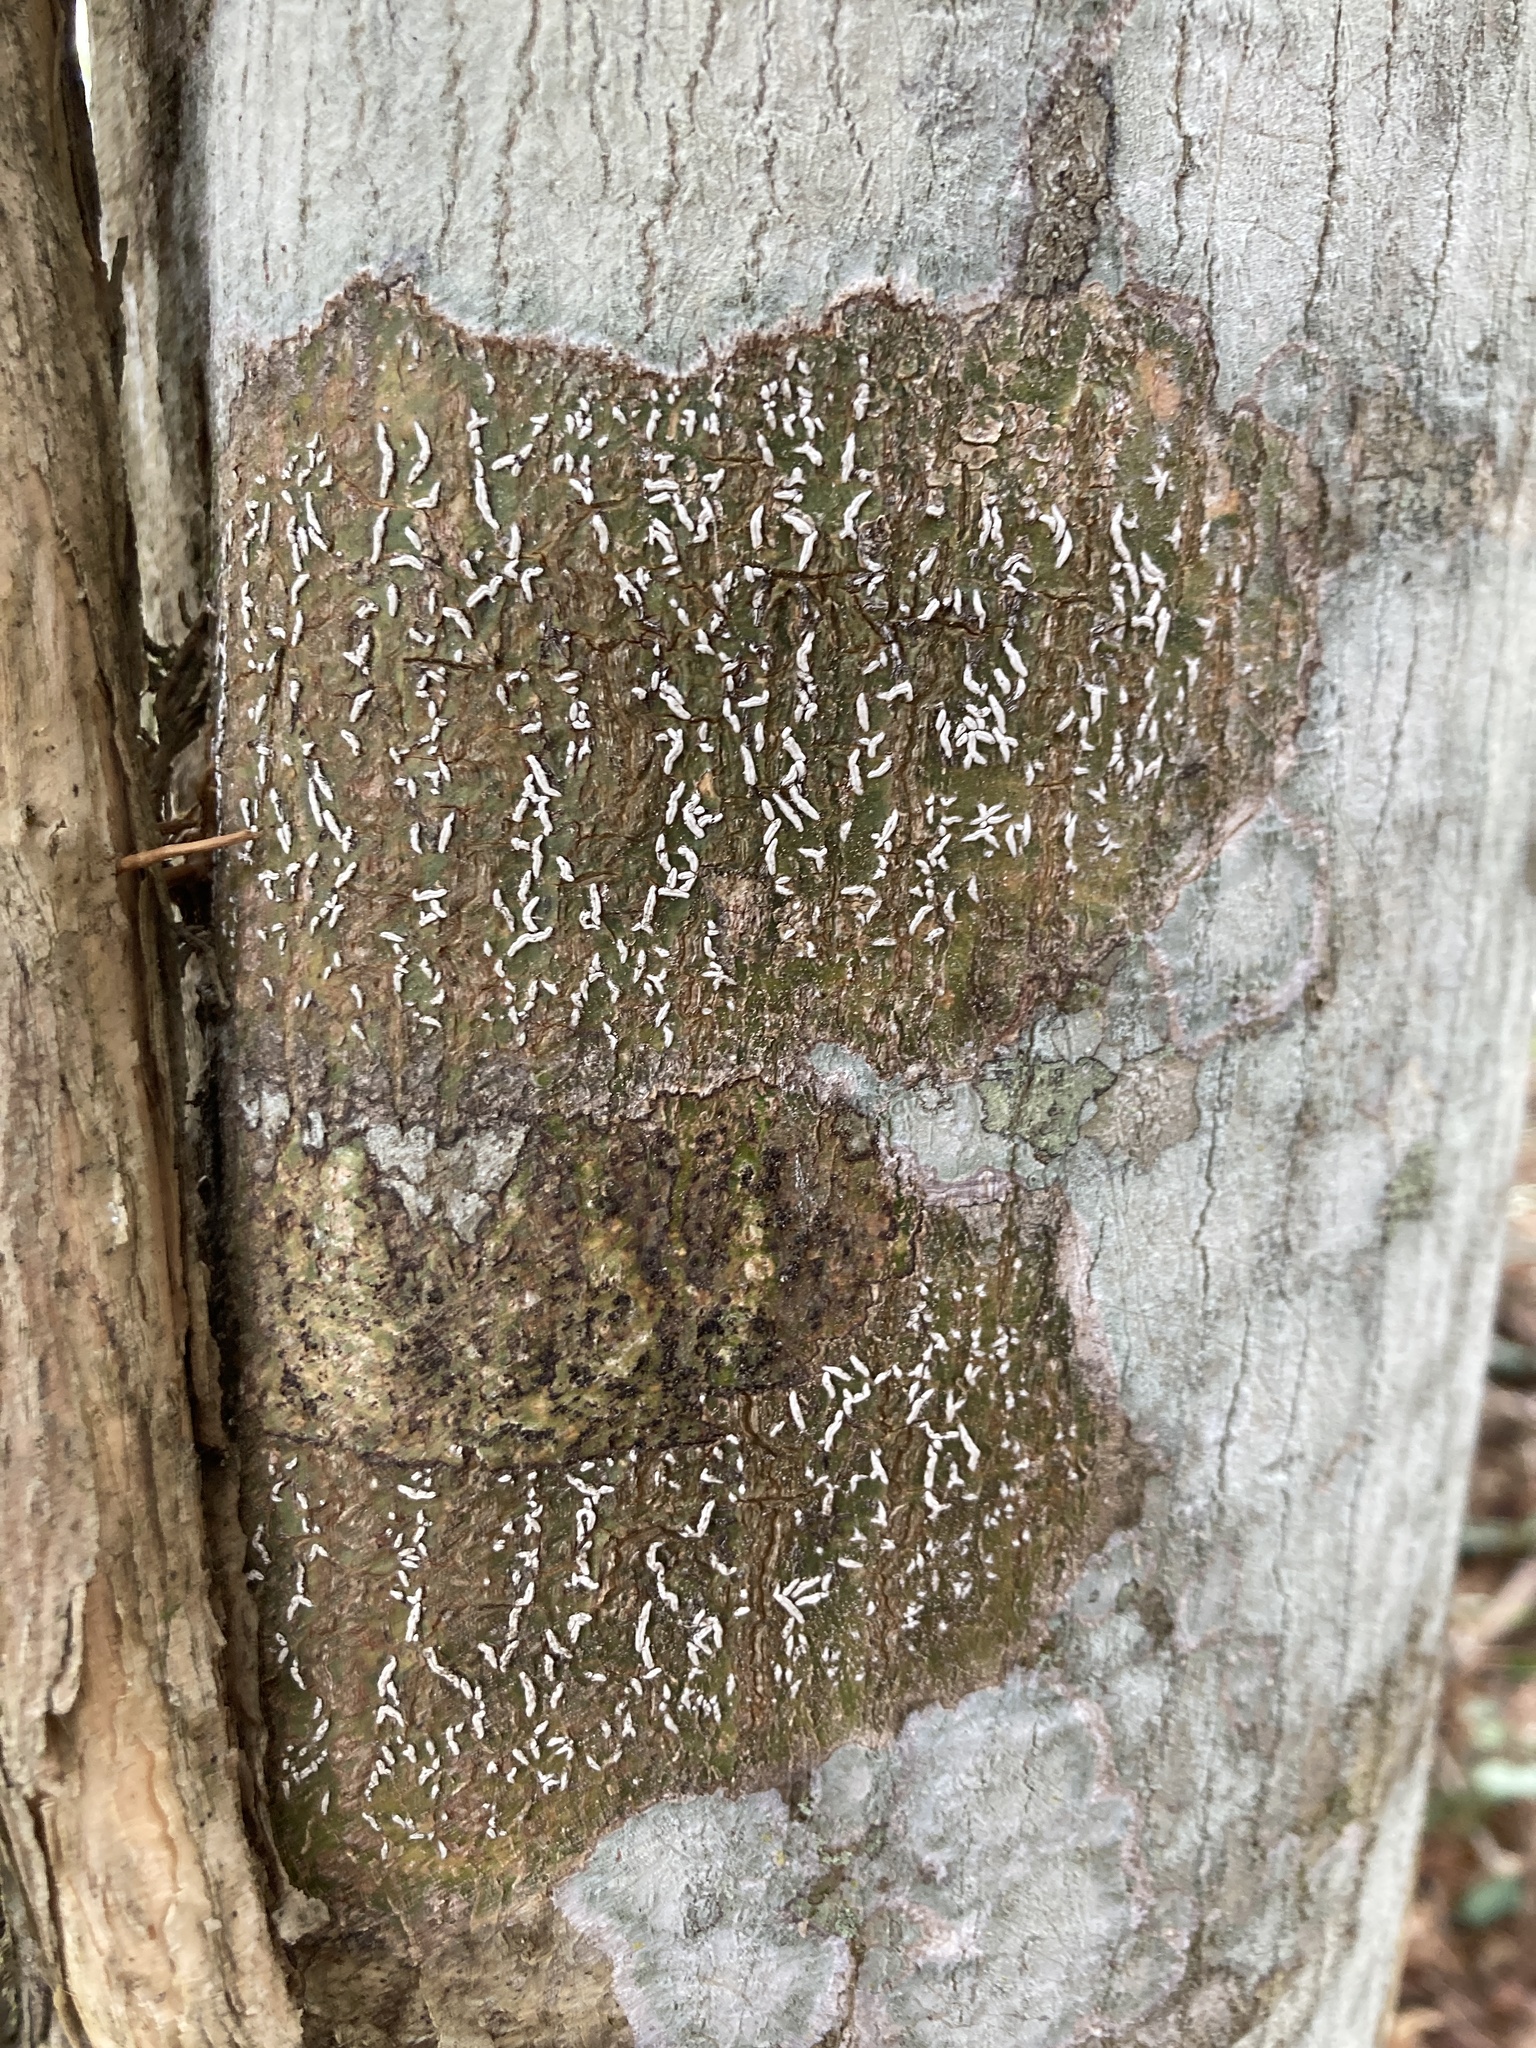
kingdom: Fungi
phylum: Ascomycota
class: Lecanoromycetes
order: Ostropales
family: Graphidaceae
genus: Dyplolabia
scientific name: Dyplolabia afzelii
